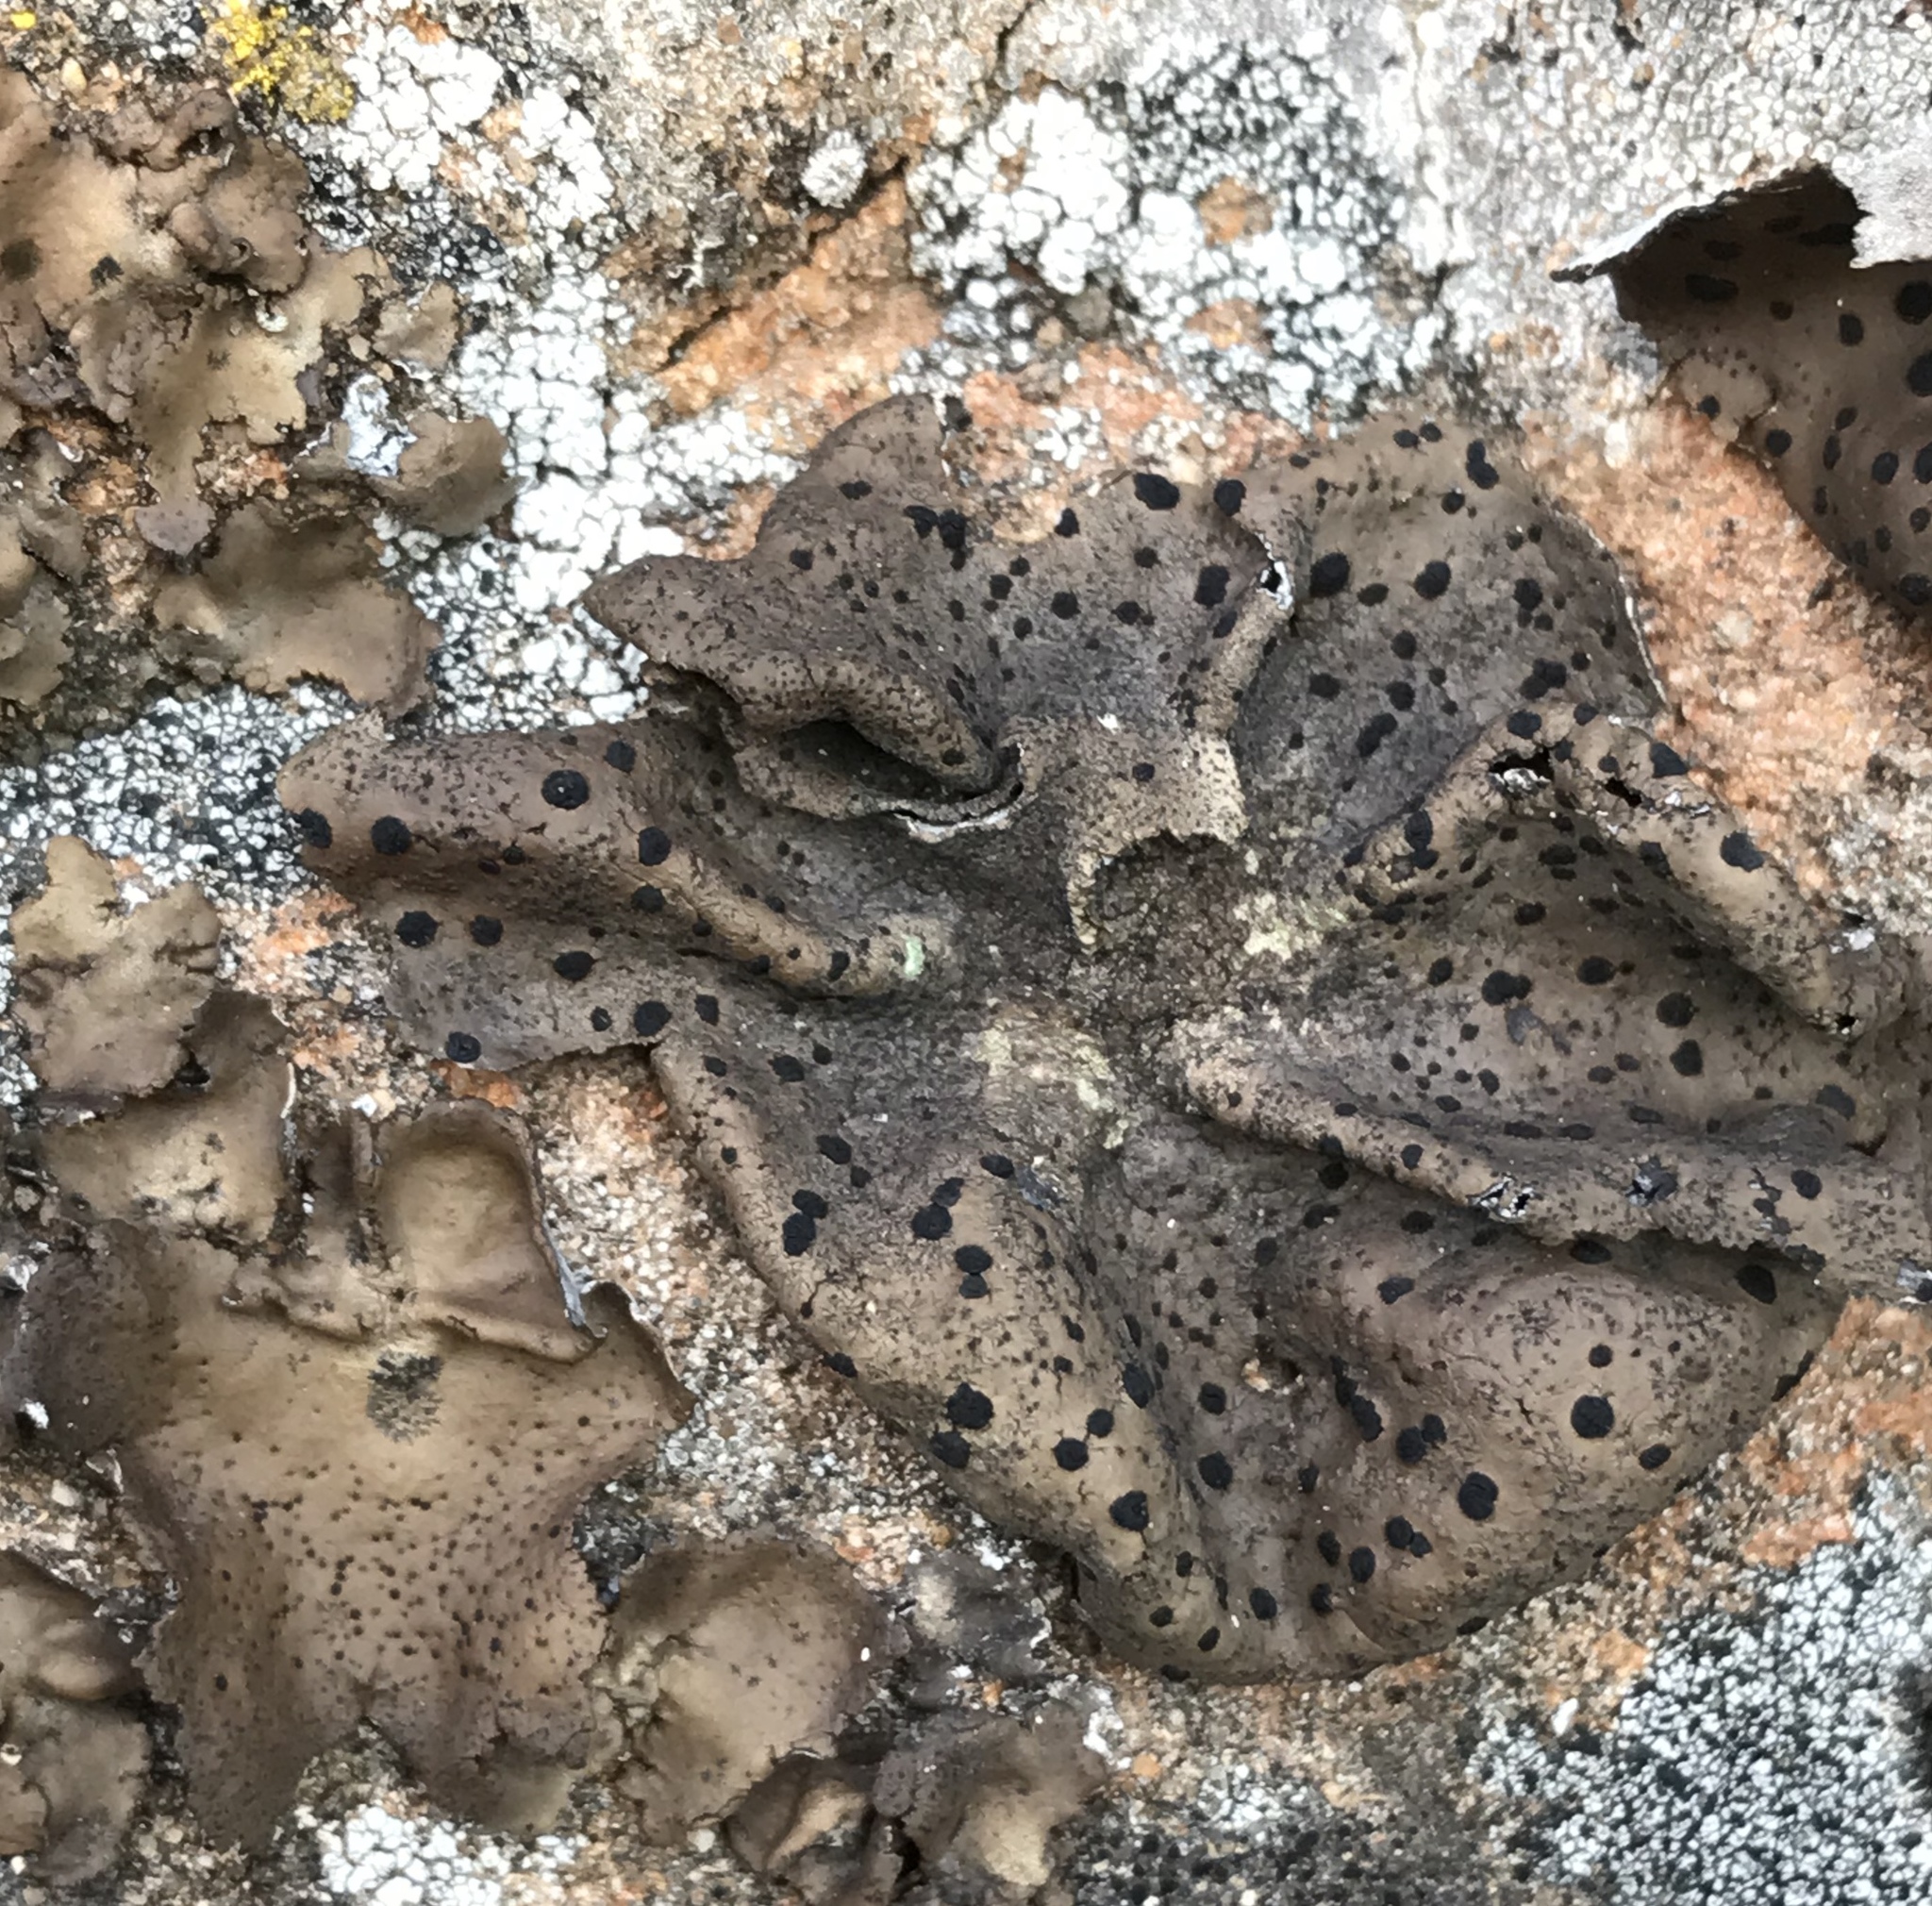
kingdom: Fungi
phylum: Ascomycota
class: Lecanoromycetes
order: Umbilicariales
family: Umbilicariaceae
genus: Umbilicaria
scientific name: Umbilicaria phaea
